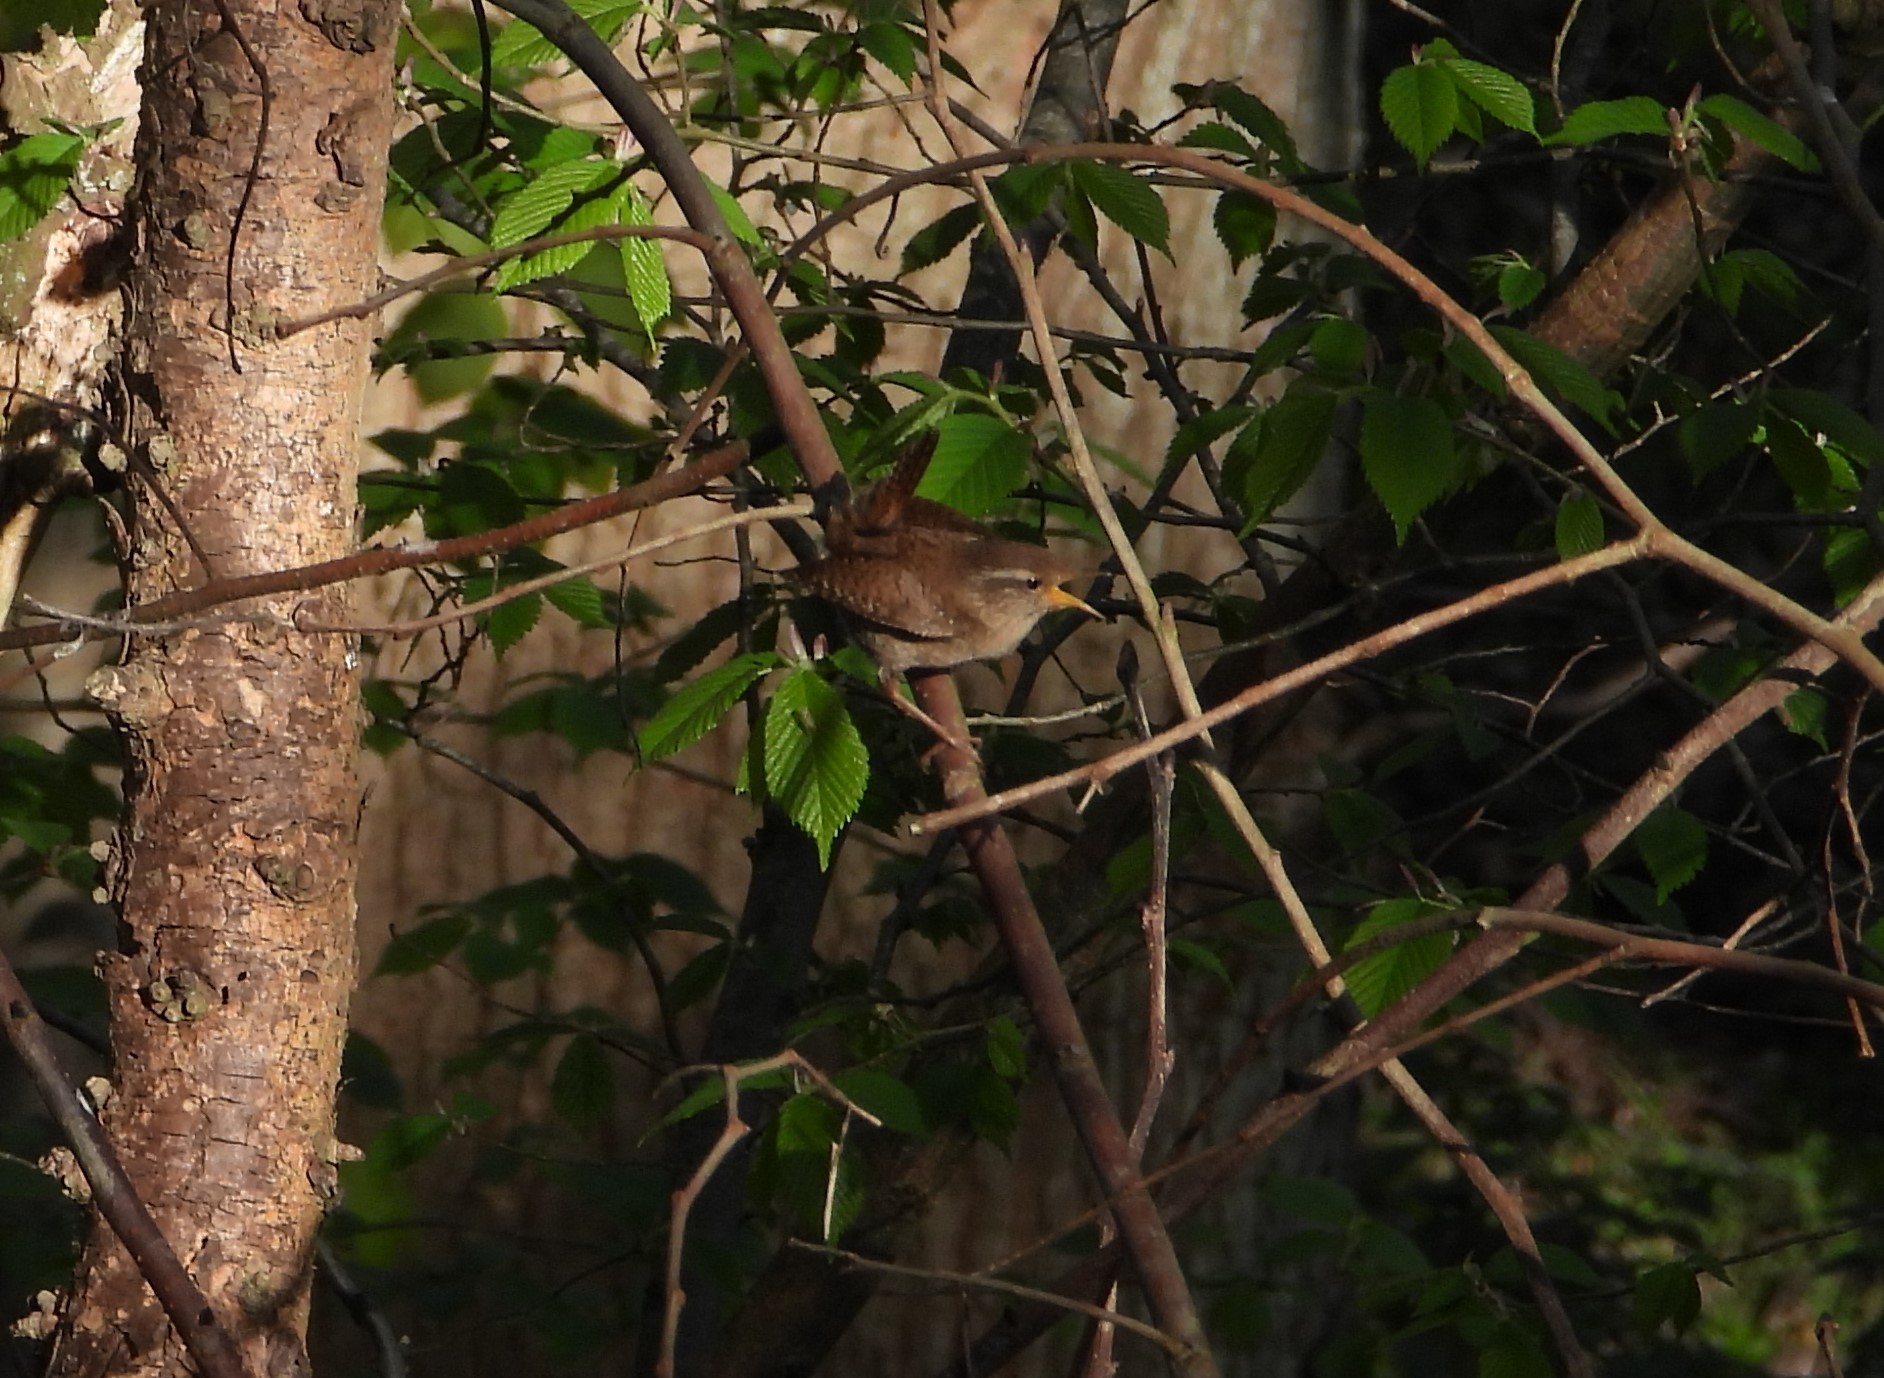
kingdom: Animalia
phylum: Chordata
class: Aves
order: Passeriformes
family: Troglodytidae
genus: Troglodytes
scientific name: Troglodytes troglodytes
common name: Eurasian wren
